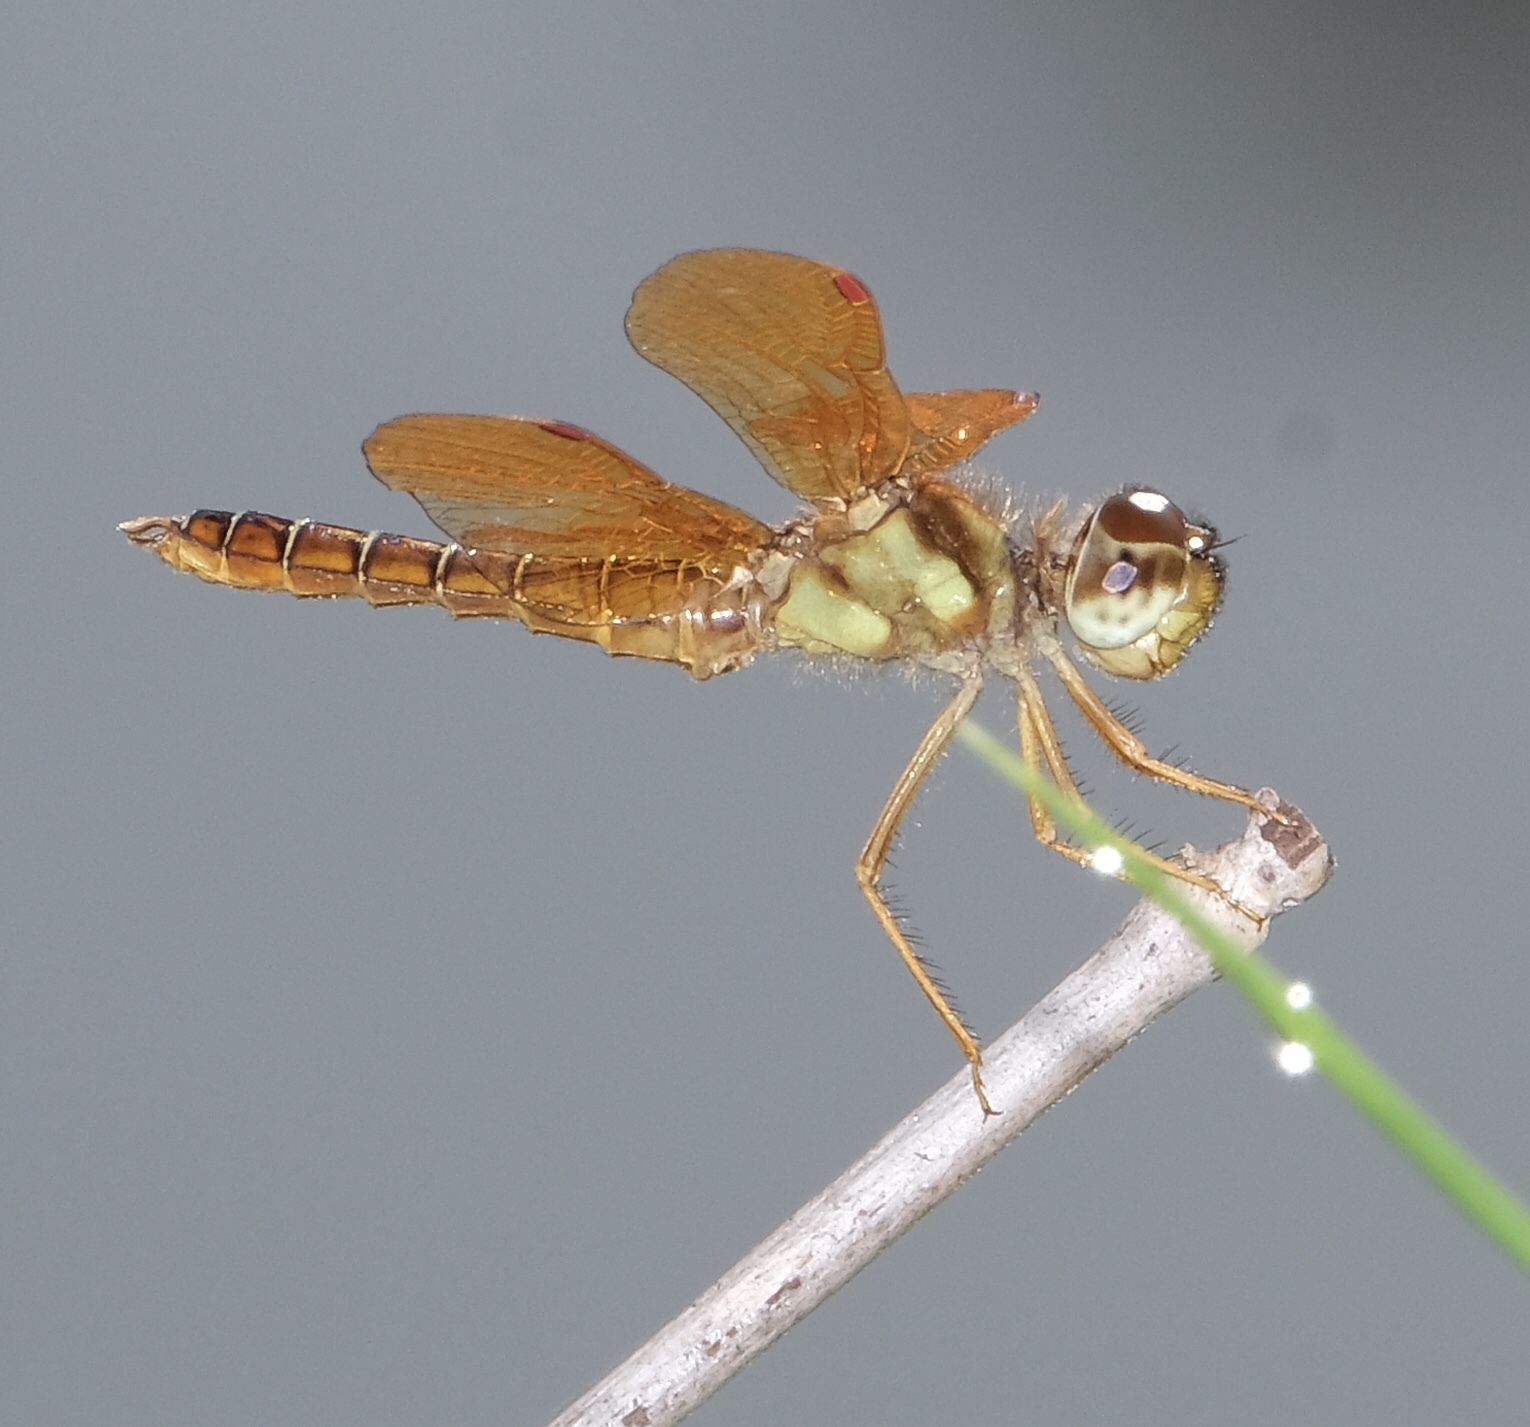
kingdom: Animalia
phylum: Arthropoda
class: Insecta
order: Odonata
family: Libellulidae
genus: Perithemis
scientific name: Perithemis tenera
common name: Eastern amberwing
